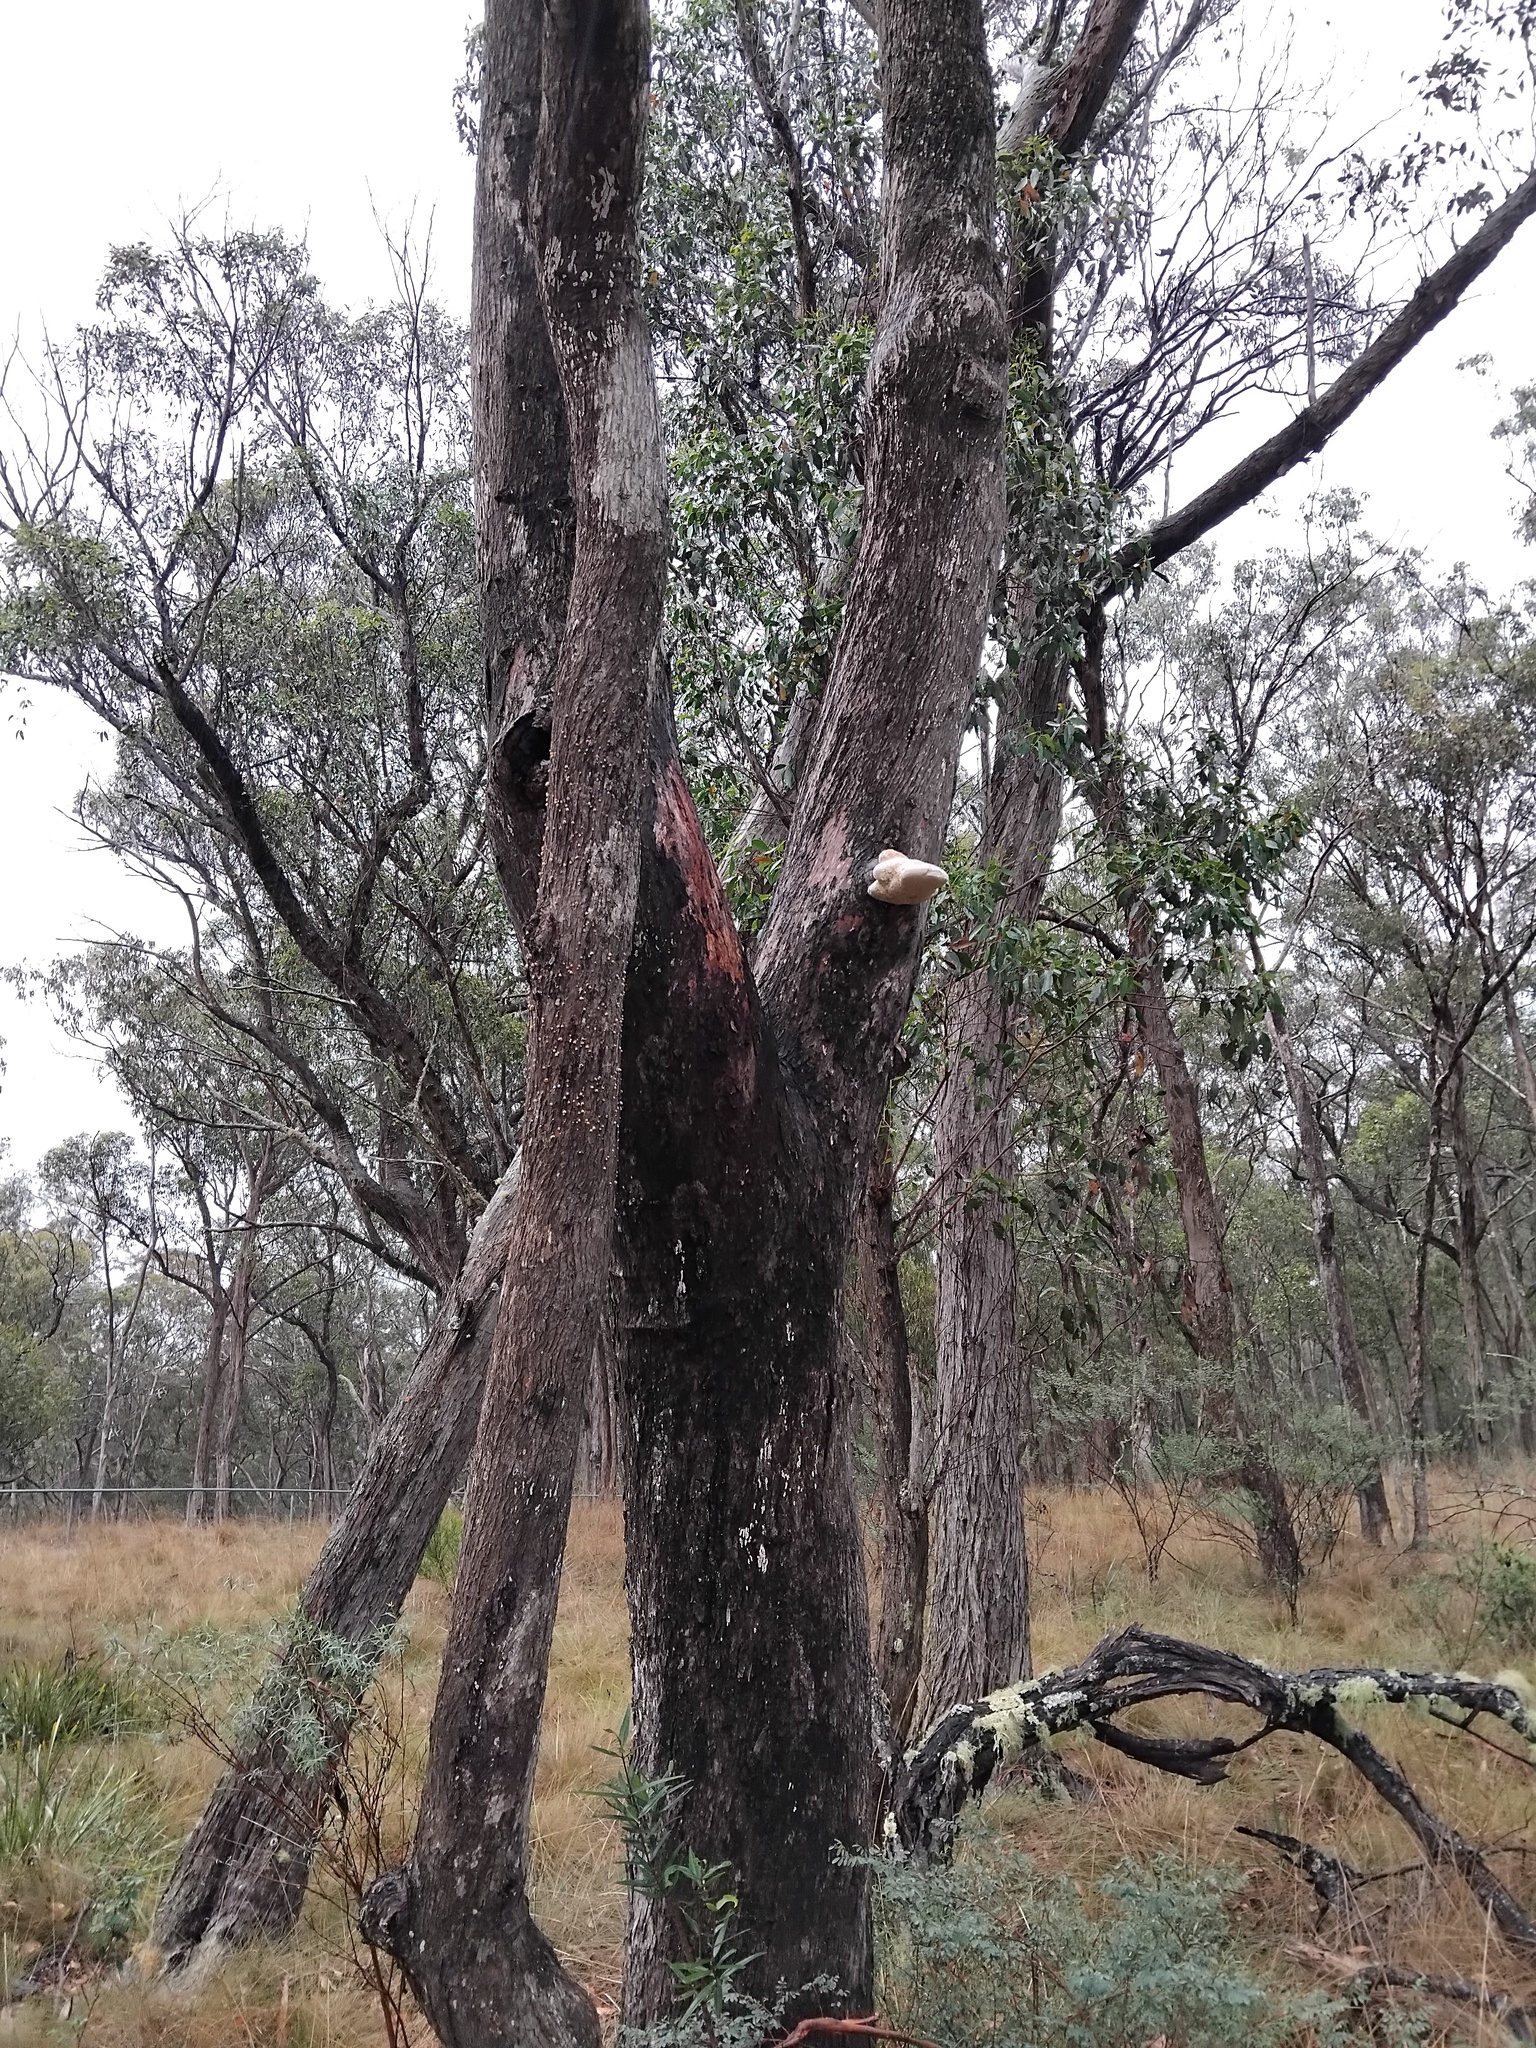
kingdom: Fungi
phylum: Basidiomycota
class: Agaricomycetes
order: Polyporales
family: Laetiporaceae
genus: Laetiporus
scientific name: Laetiporus portentosus
